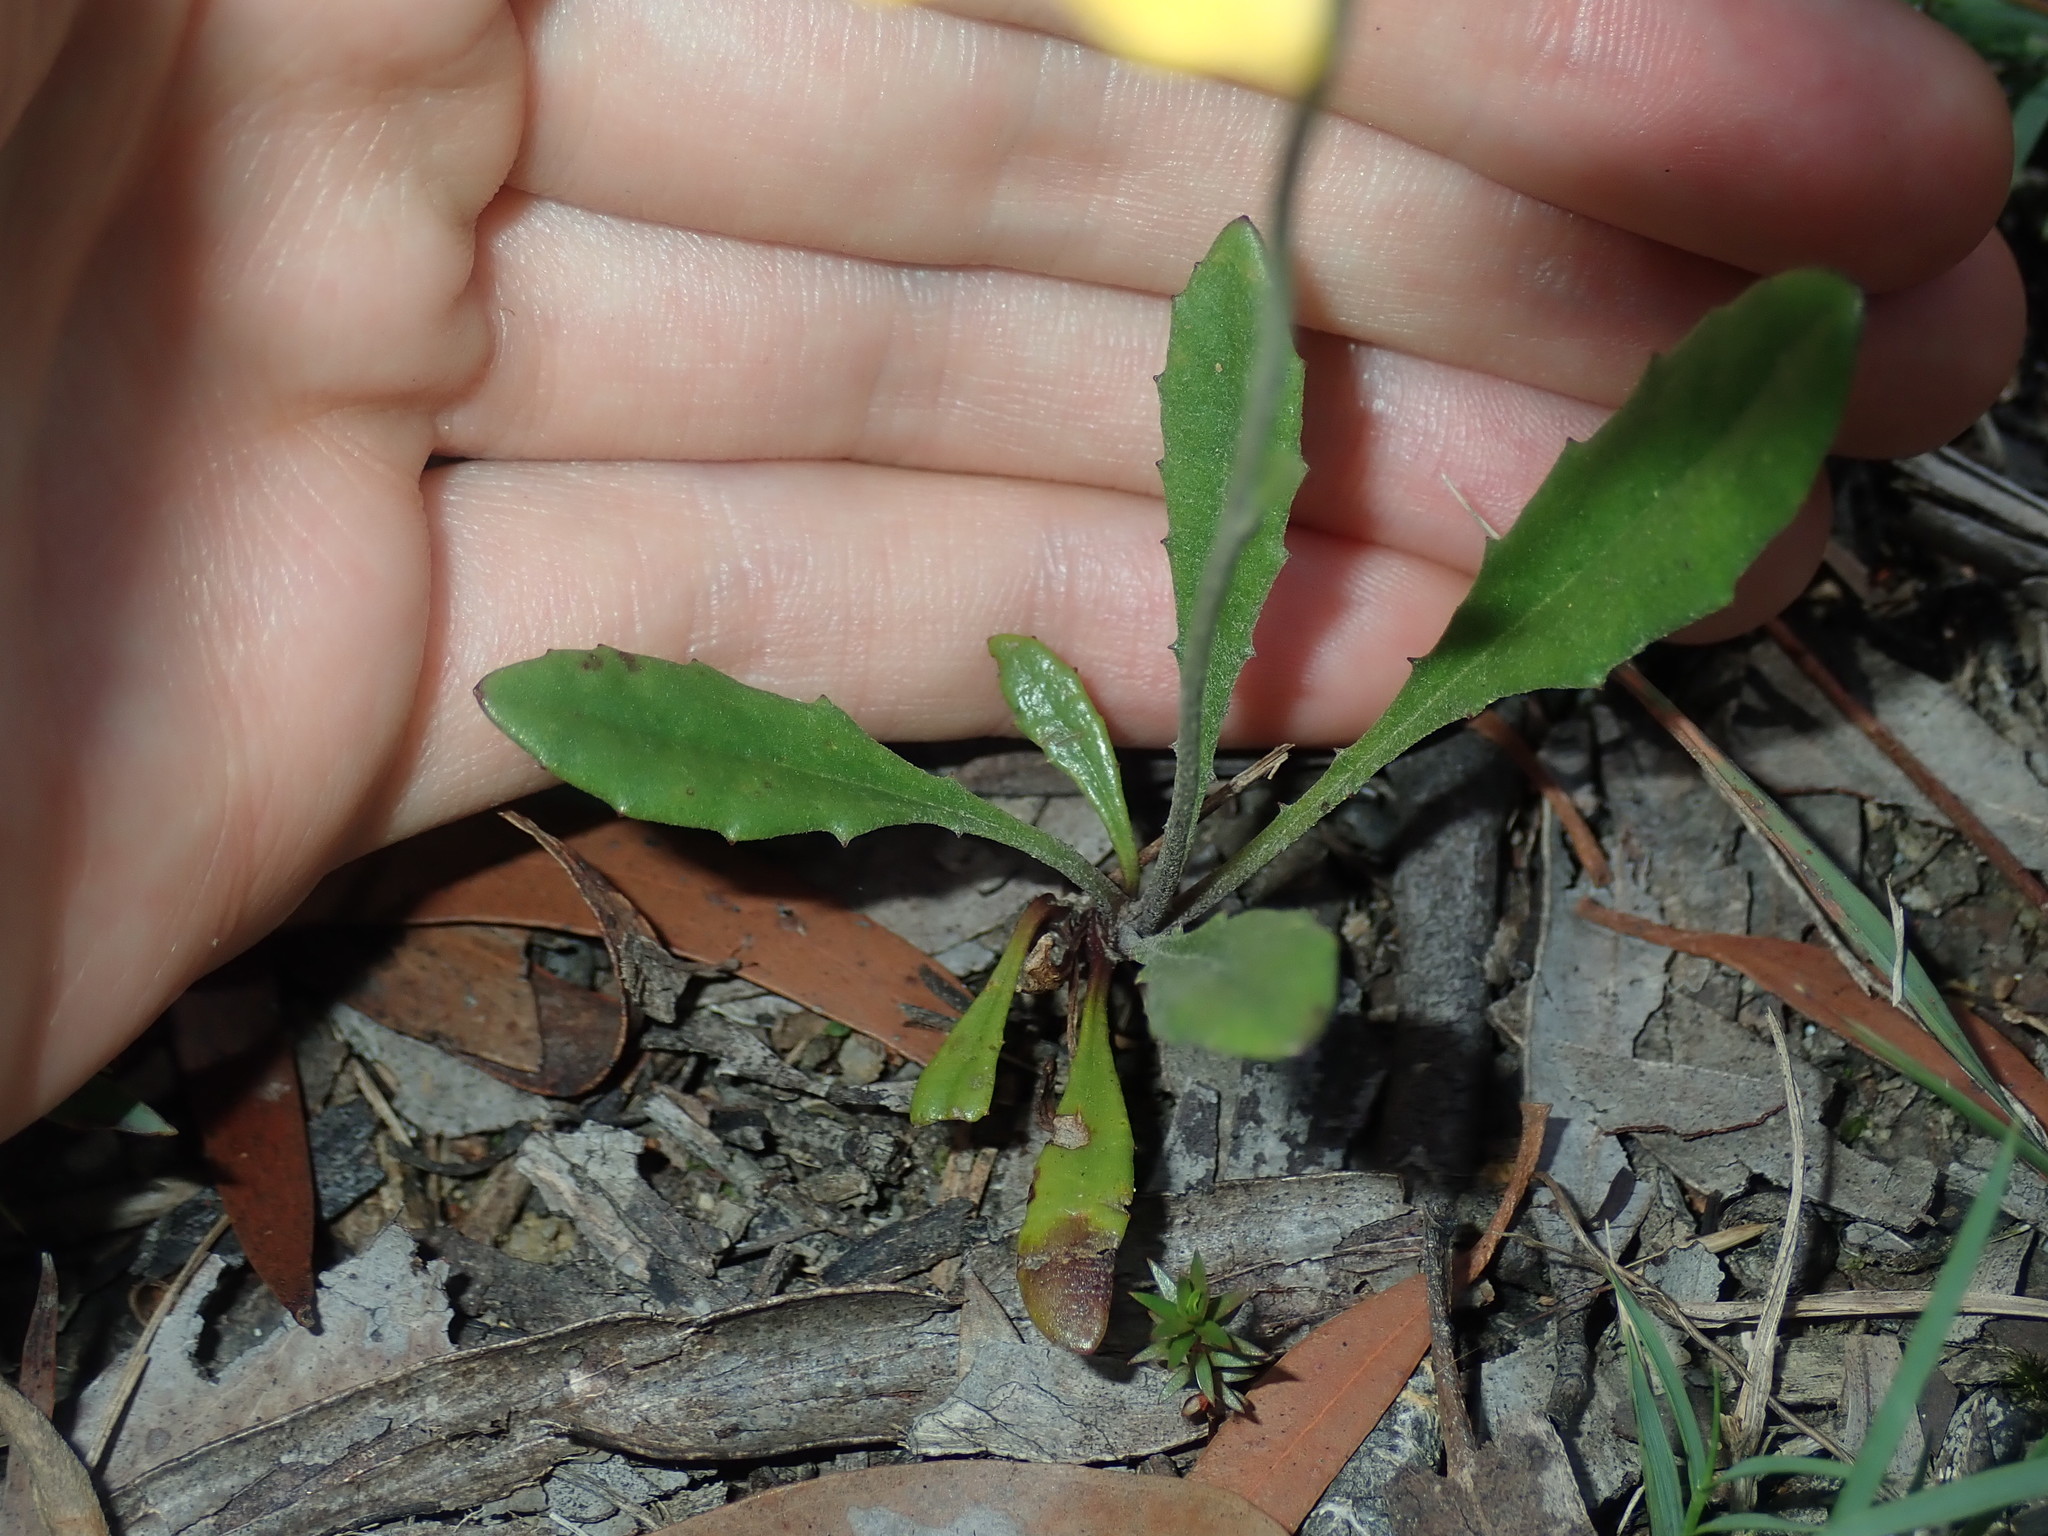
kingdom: Plantae
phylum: Tracheophyta
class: Magnoliopsida
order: Asterales
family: Goodeniaceae
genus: Goodenia
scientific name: Goodenia bellidifolia
